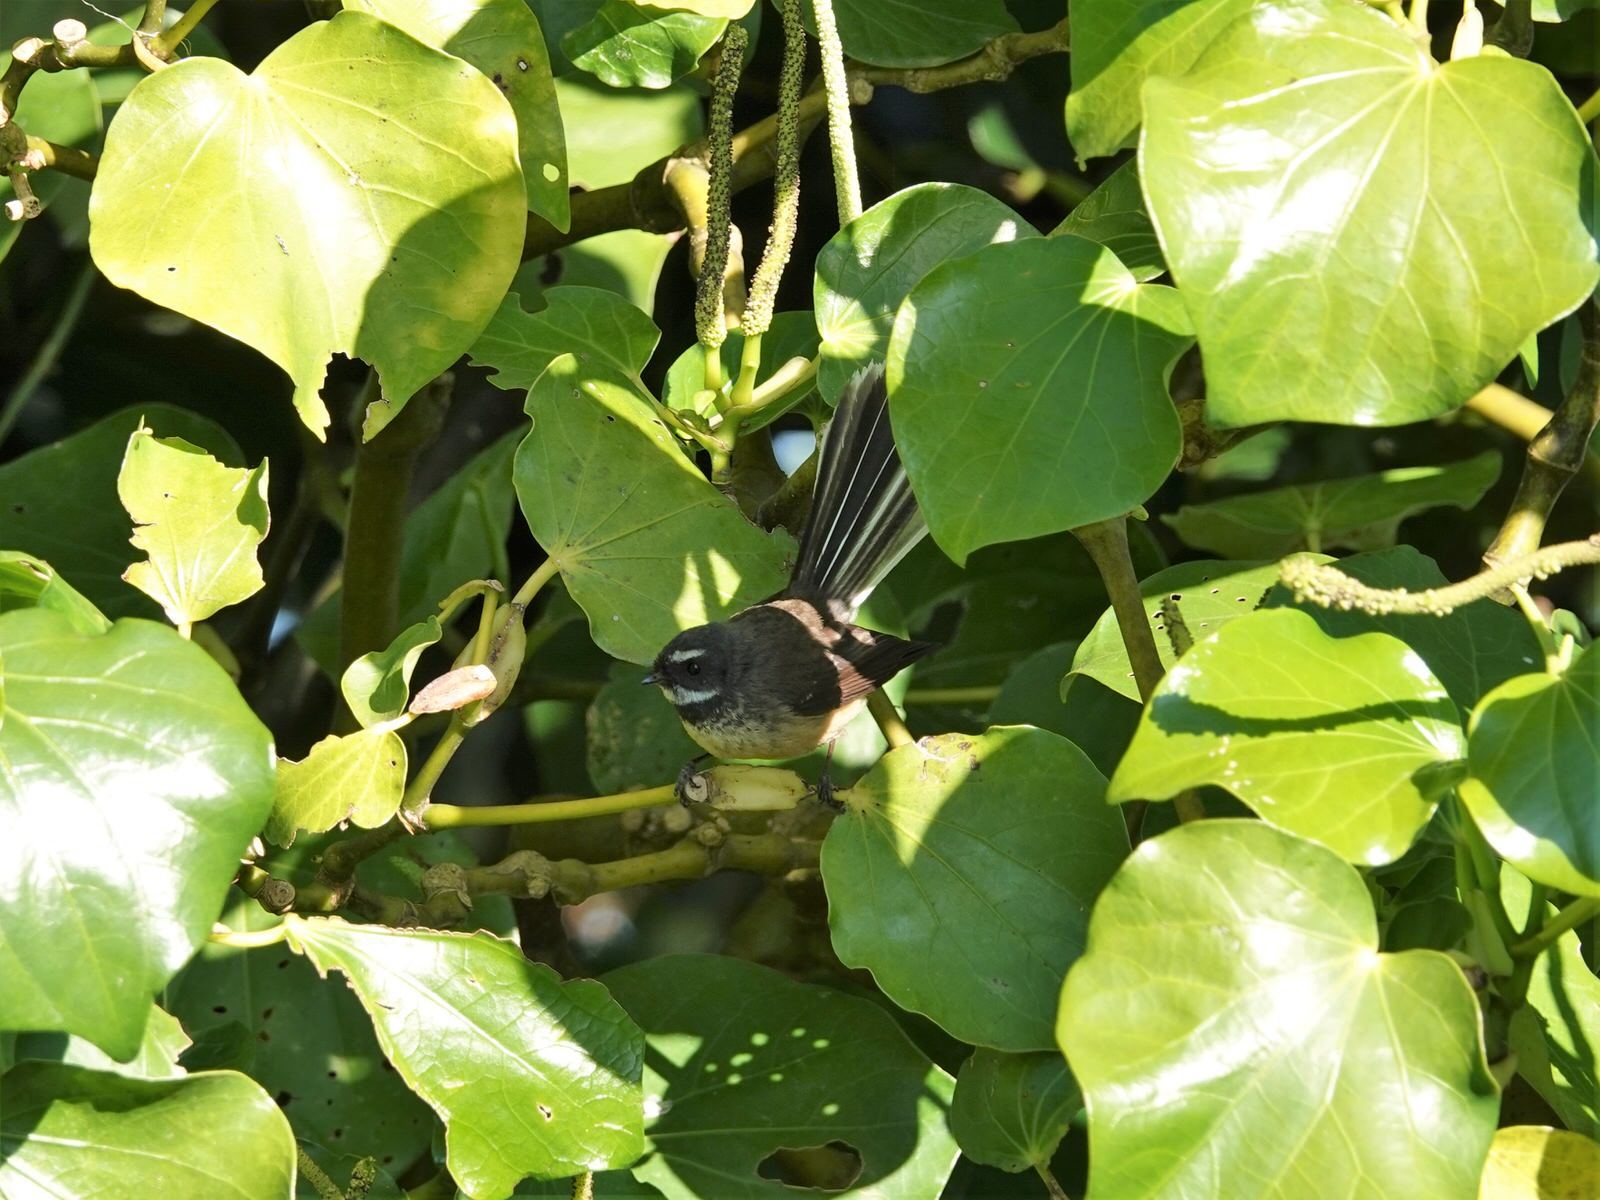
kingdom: Animalia
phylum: Chordata
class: Aves
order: Passeriformes
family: Rhipiduridae
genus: Rhipidura
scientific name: Rhipidura fuliginosa
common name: New zealand fantail
